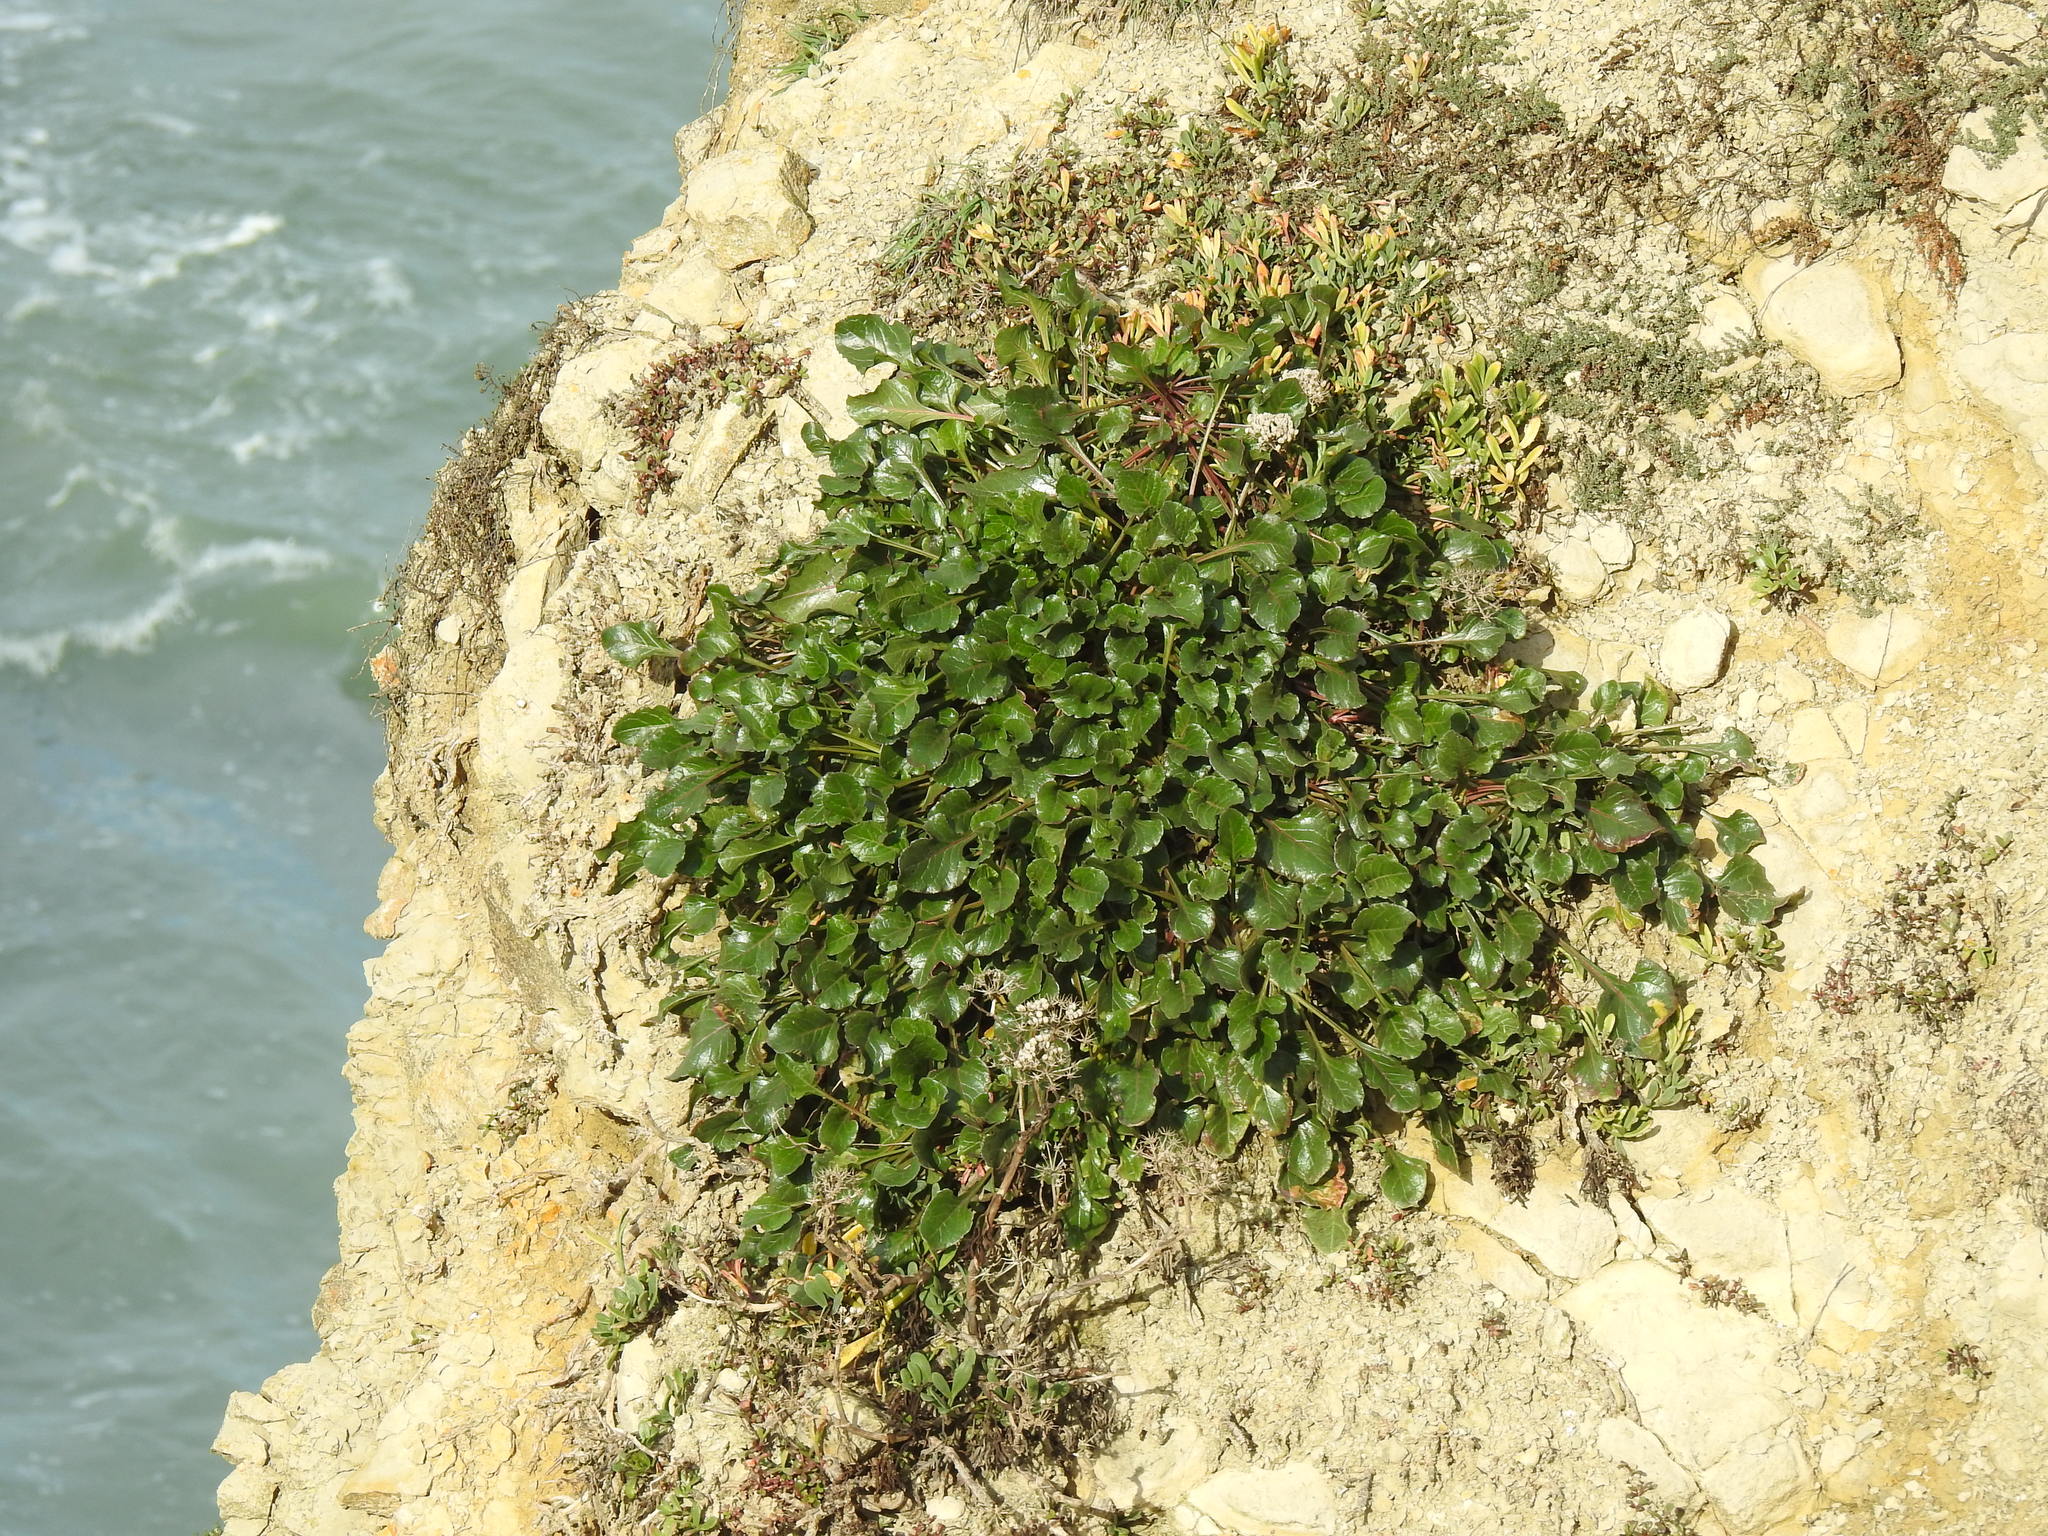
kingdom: Plantae
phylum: Tracheophyta
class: Magnoliopsida
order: Caryophyllales
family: Amaranthaceae
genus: Beta
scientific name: Beta vulgaris
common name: Beet
